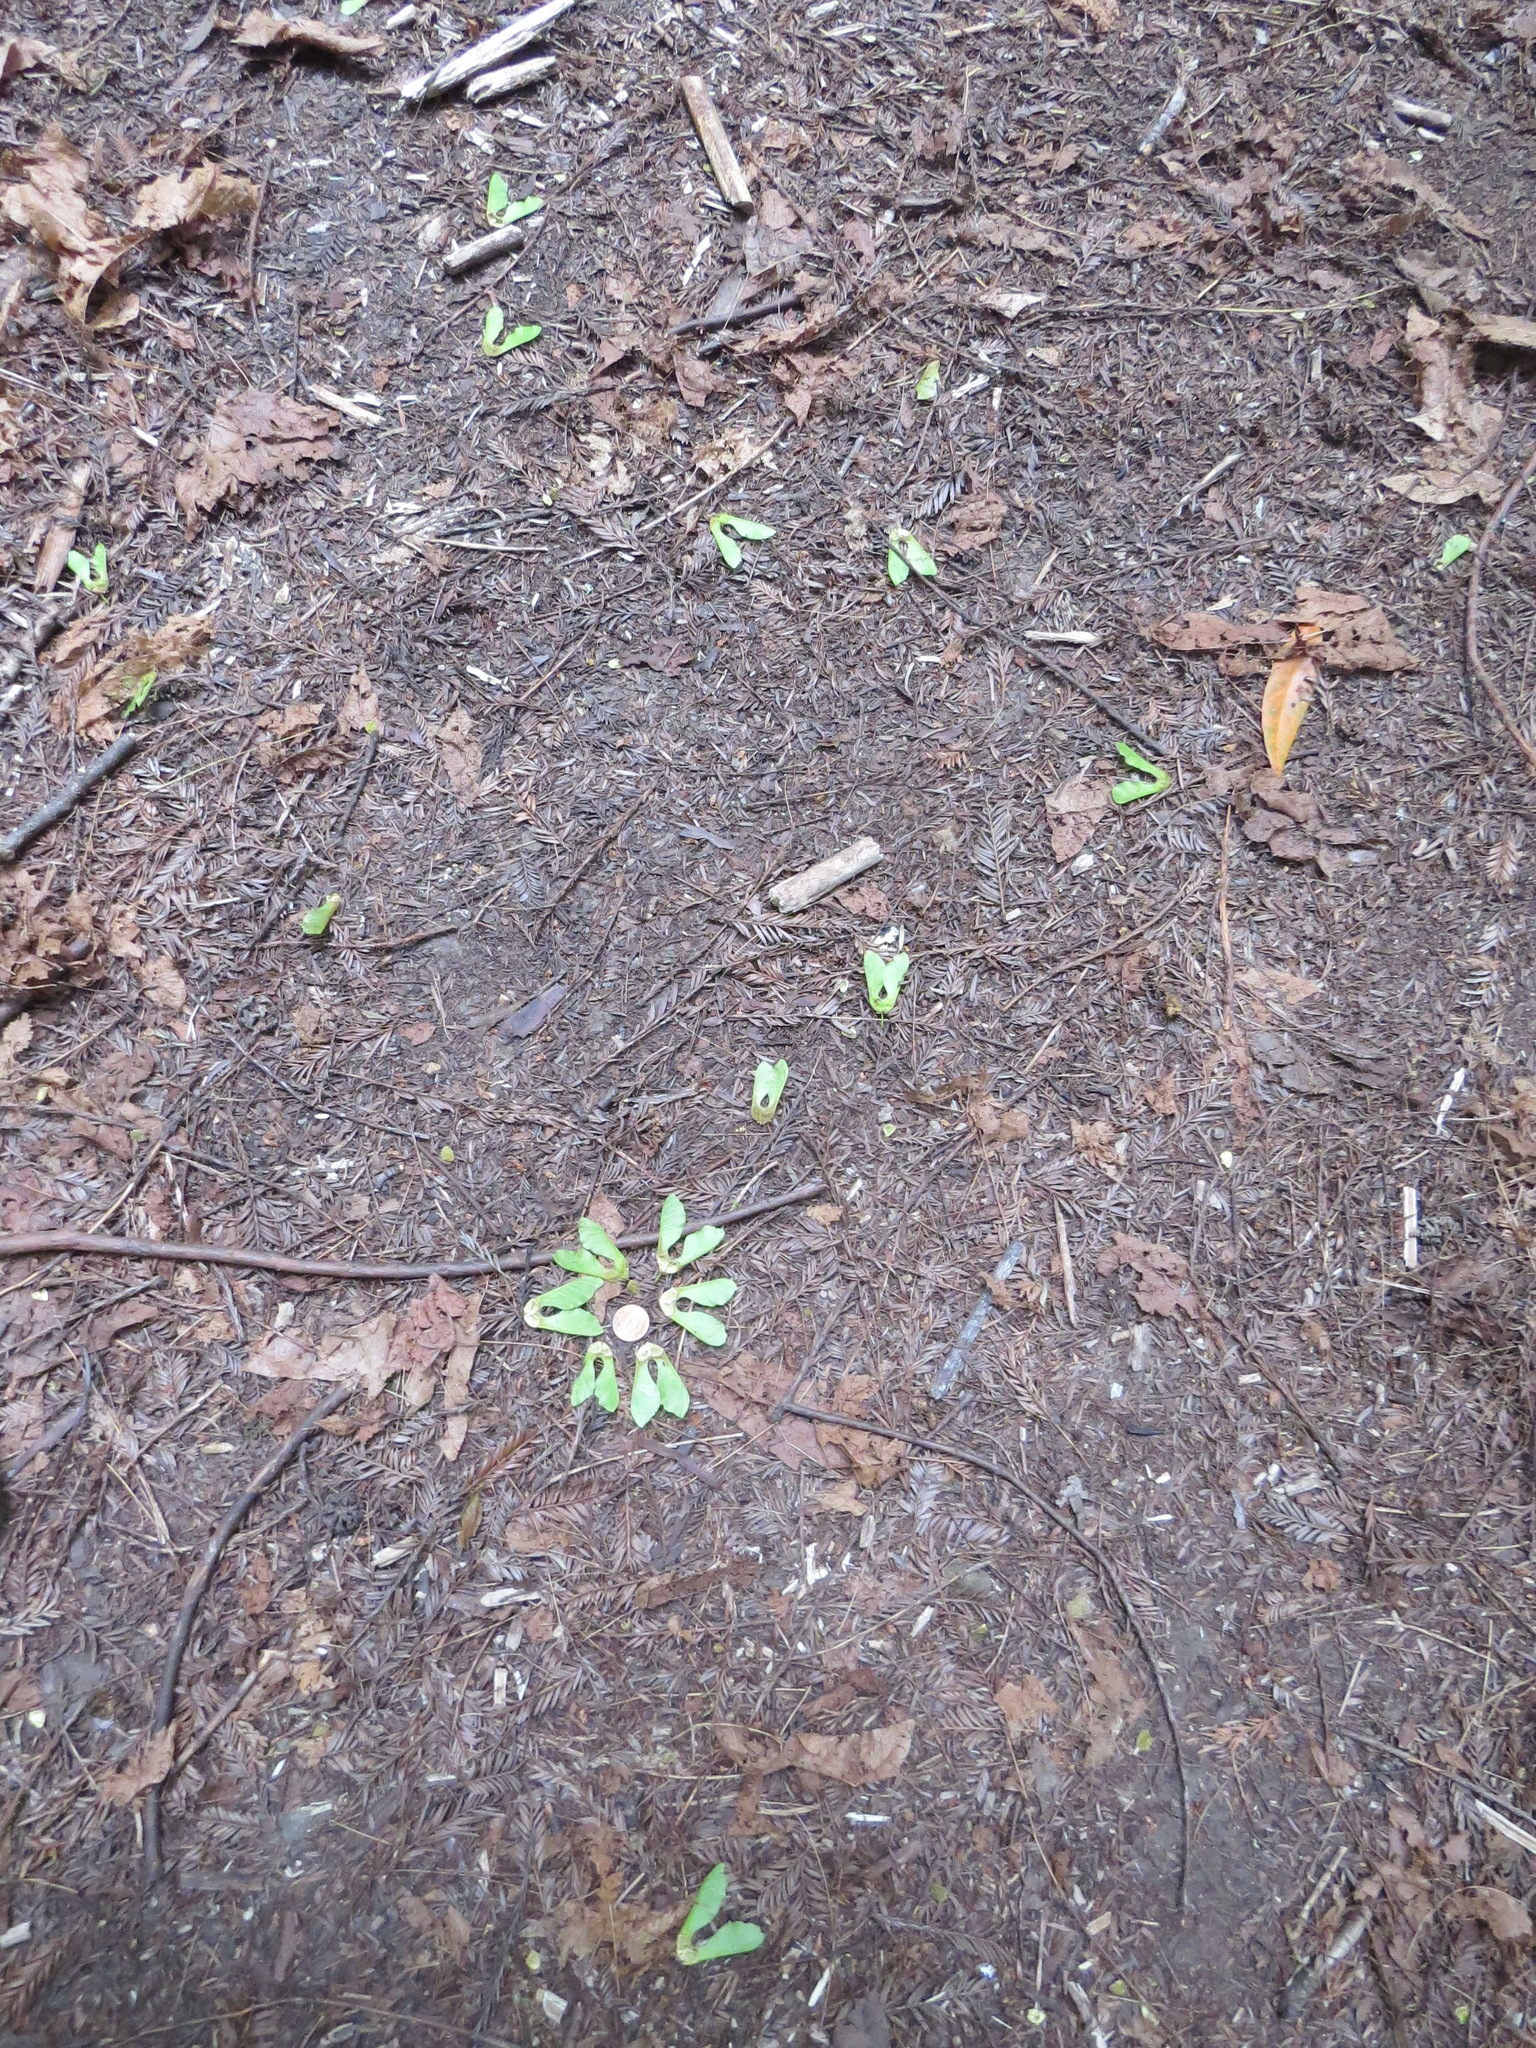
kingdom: Animalia
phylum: Chordata
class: Mammalia
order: Rodentia
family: Sciuridae
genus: Sciurus
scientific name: Sciurus griseus
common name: Western gray squirrel
